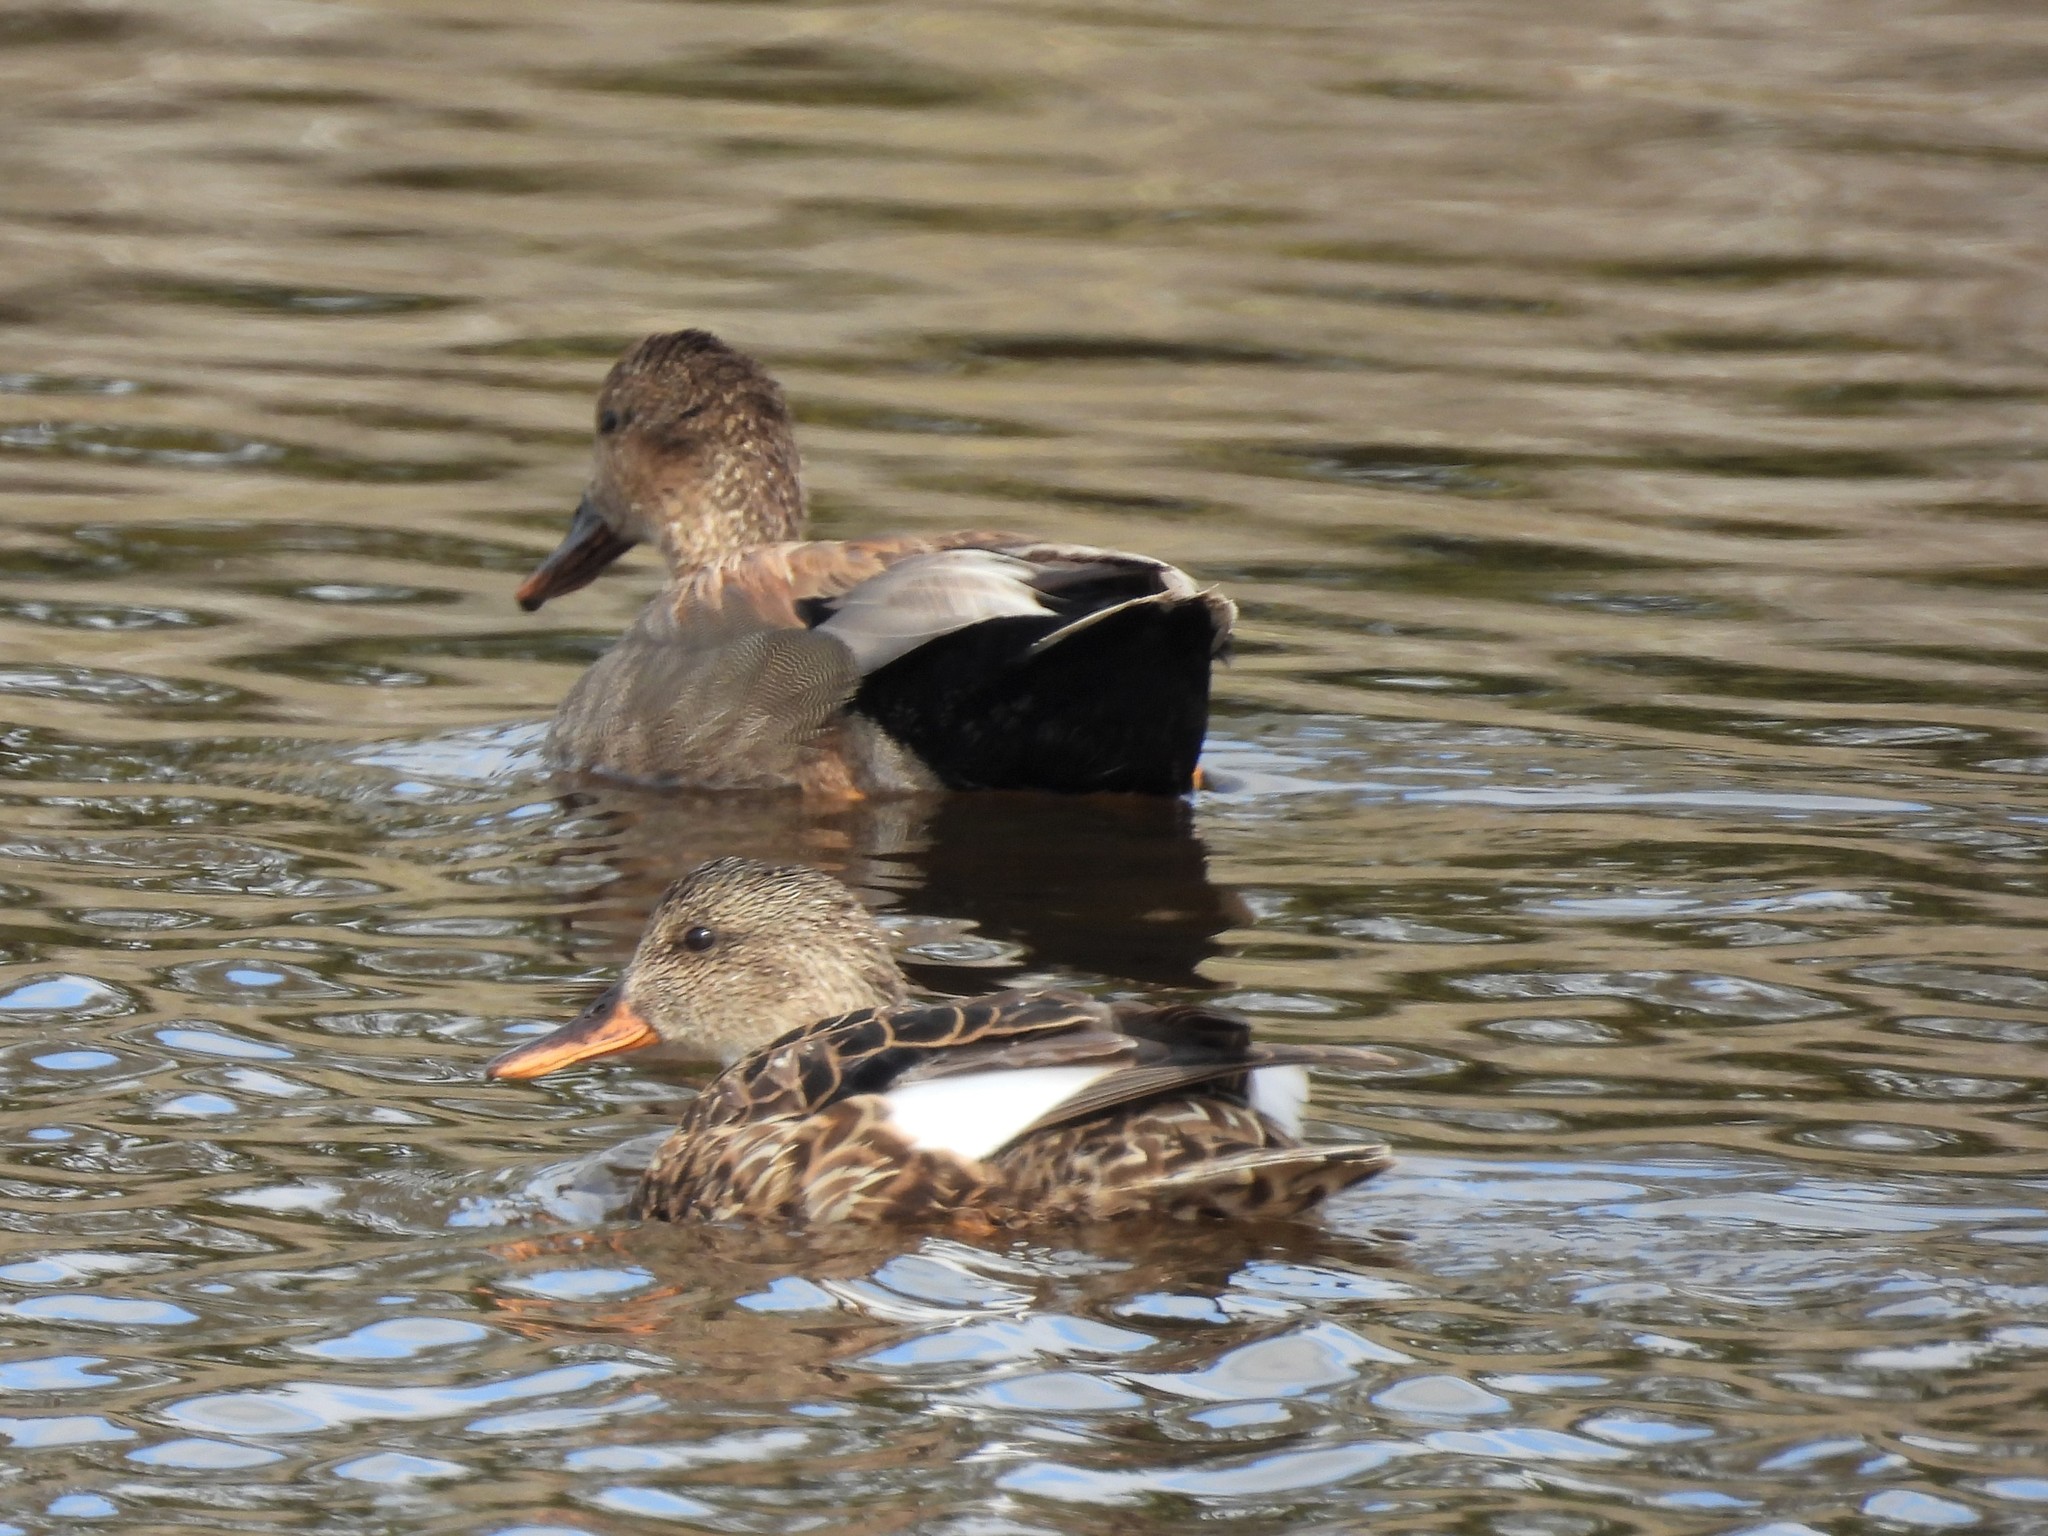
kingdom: Animalia
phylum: Chordata
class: Aves
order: Anseriformes
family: Anatidae
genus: Mareca
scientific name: Mareca strepera
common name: Gadwall
